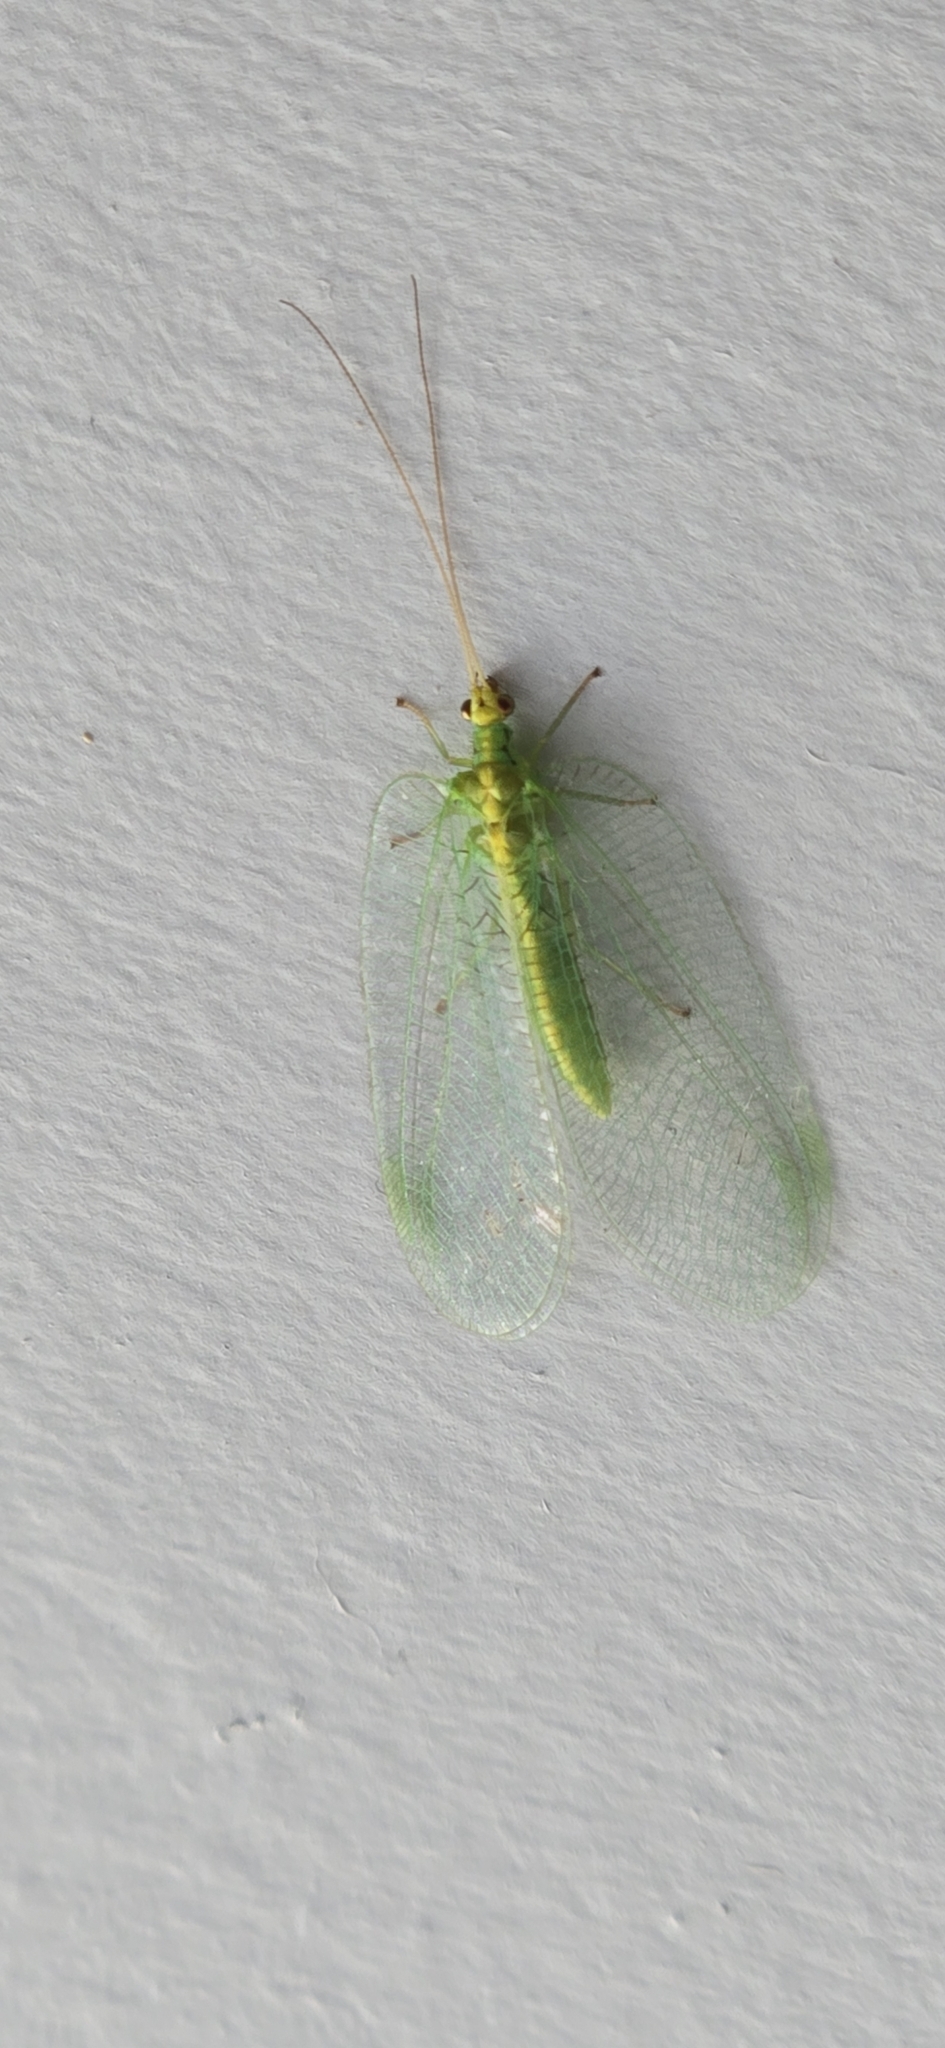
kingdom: Animalia
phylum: Arthropoda
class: Insecta
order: Neuroptera
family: Chrysopidae
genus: Nothancyla
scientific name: Nothancyla verreauxi
